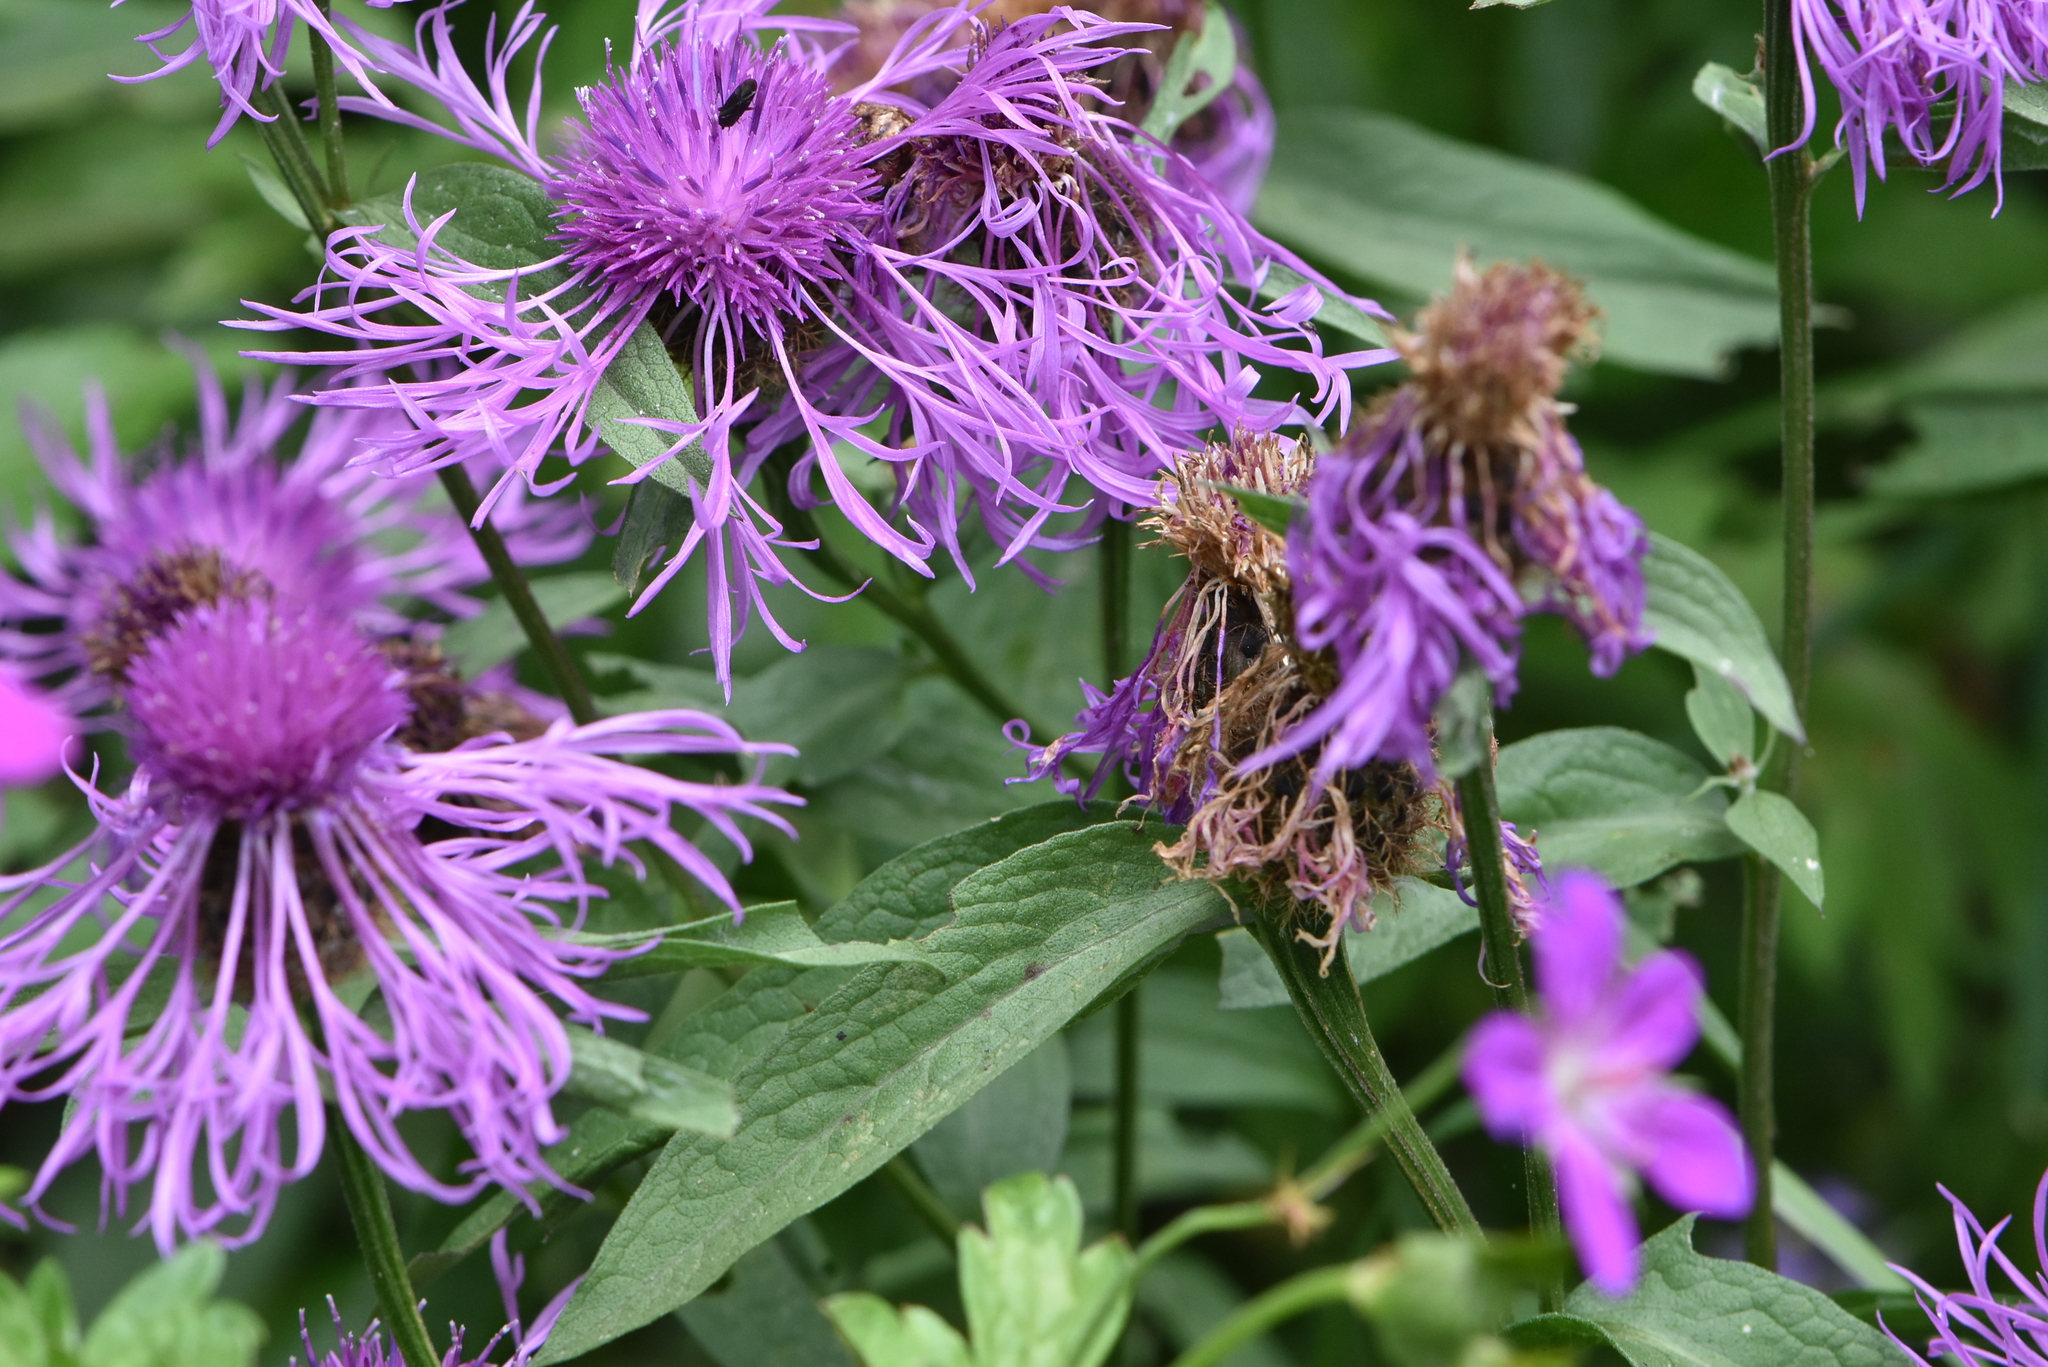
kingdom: Plantae
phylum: Tracheophyta
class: Magnoliopsida
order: Asterales
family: Asteraceae
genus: Centaurea
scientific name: Centaurea phrygia
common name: Wig knapweed
